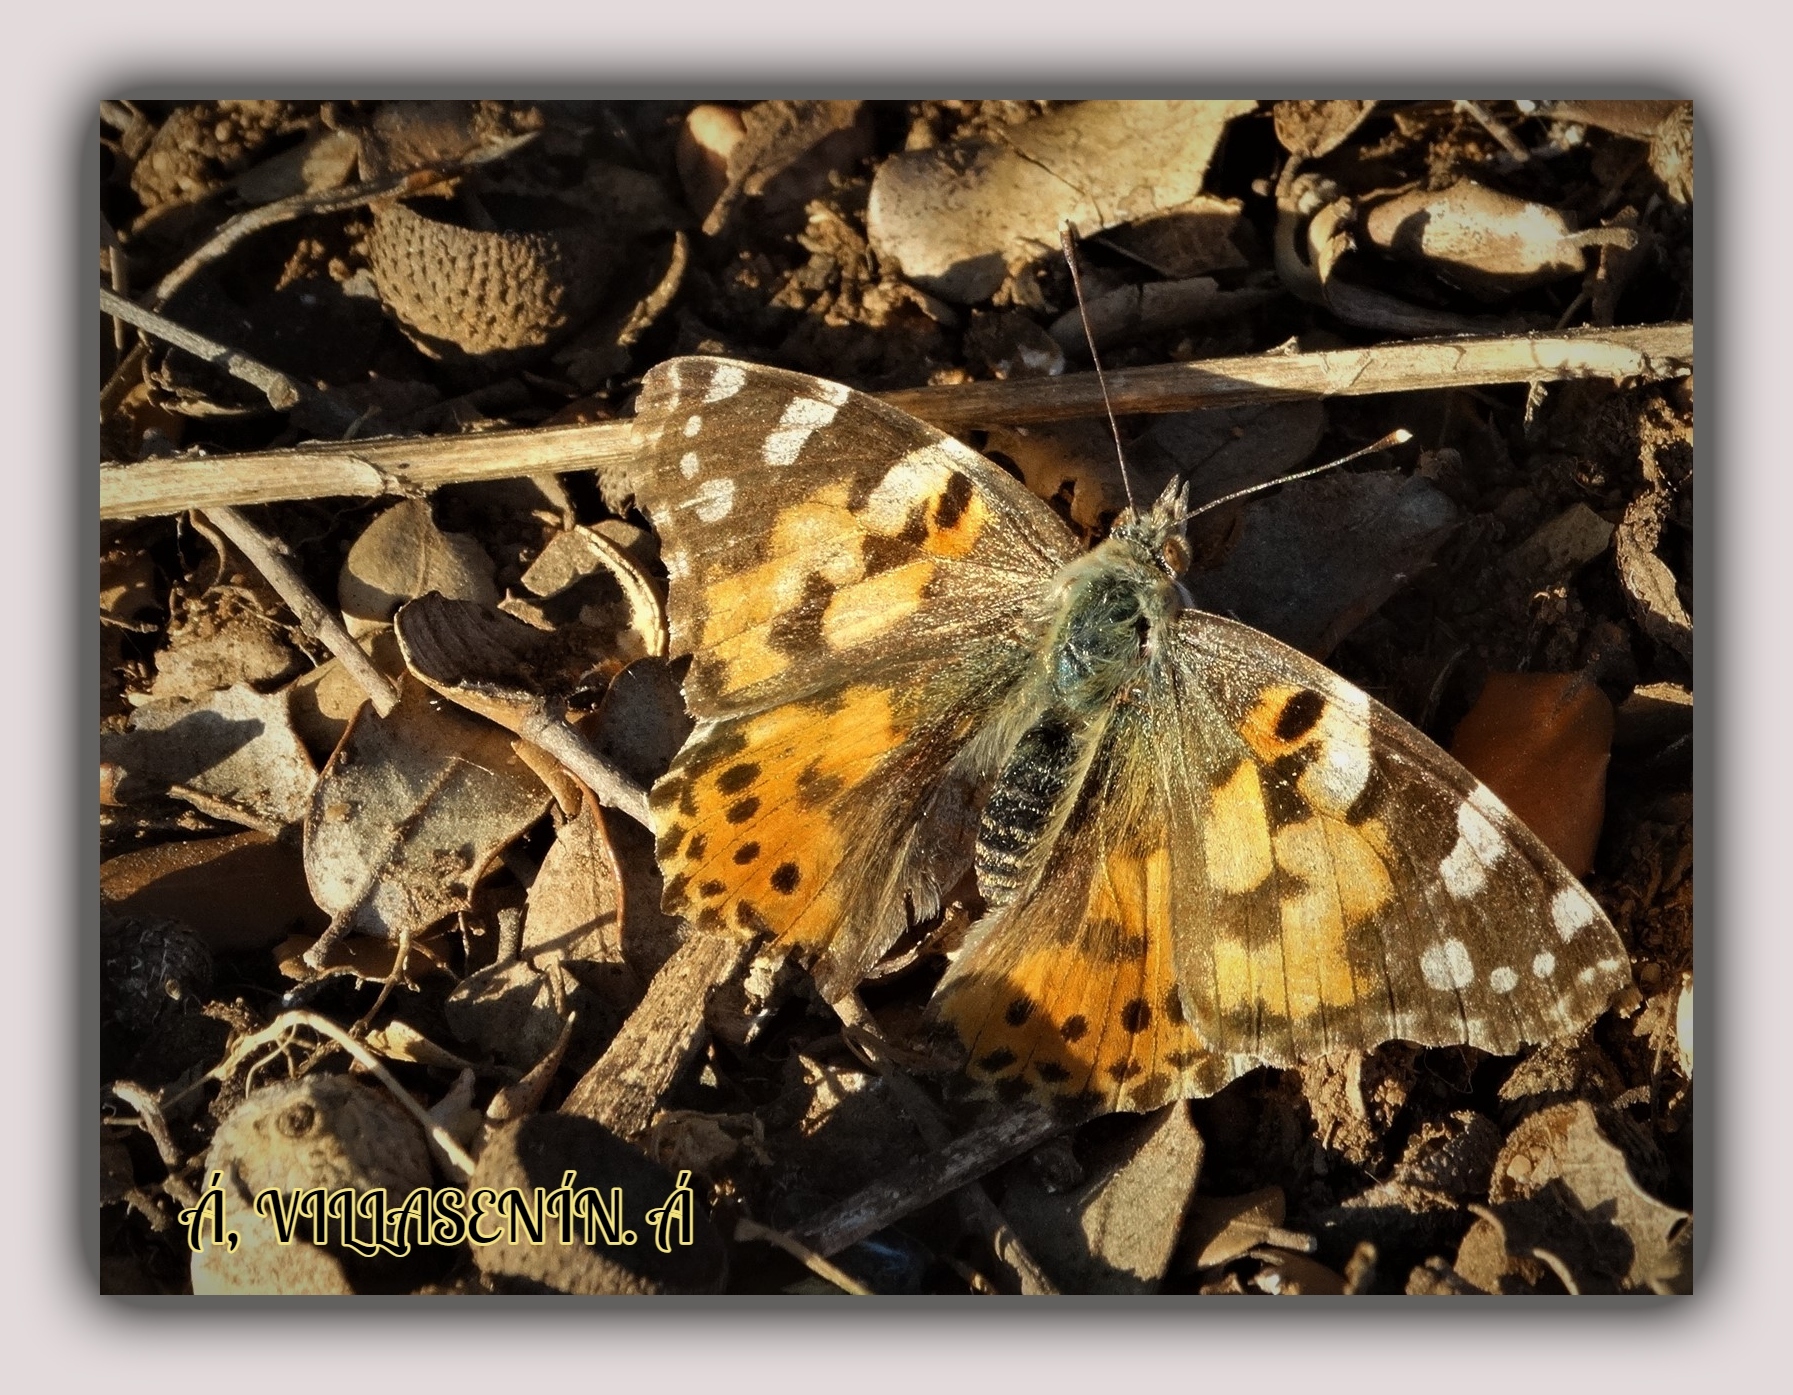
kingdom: Animalia
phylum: Arthropoda
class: Insecta
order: Lepidoptera
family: Nymphalidae
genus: Vanessa
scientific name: Vanessa cardui
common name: Painted lady
